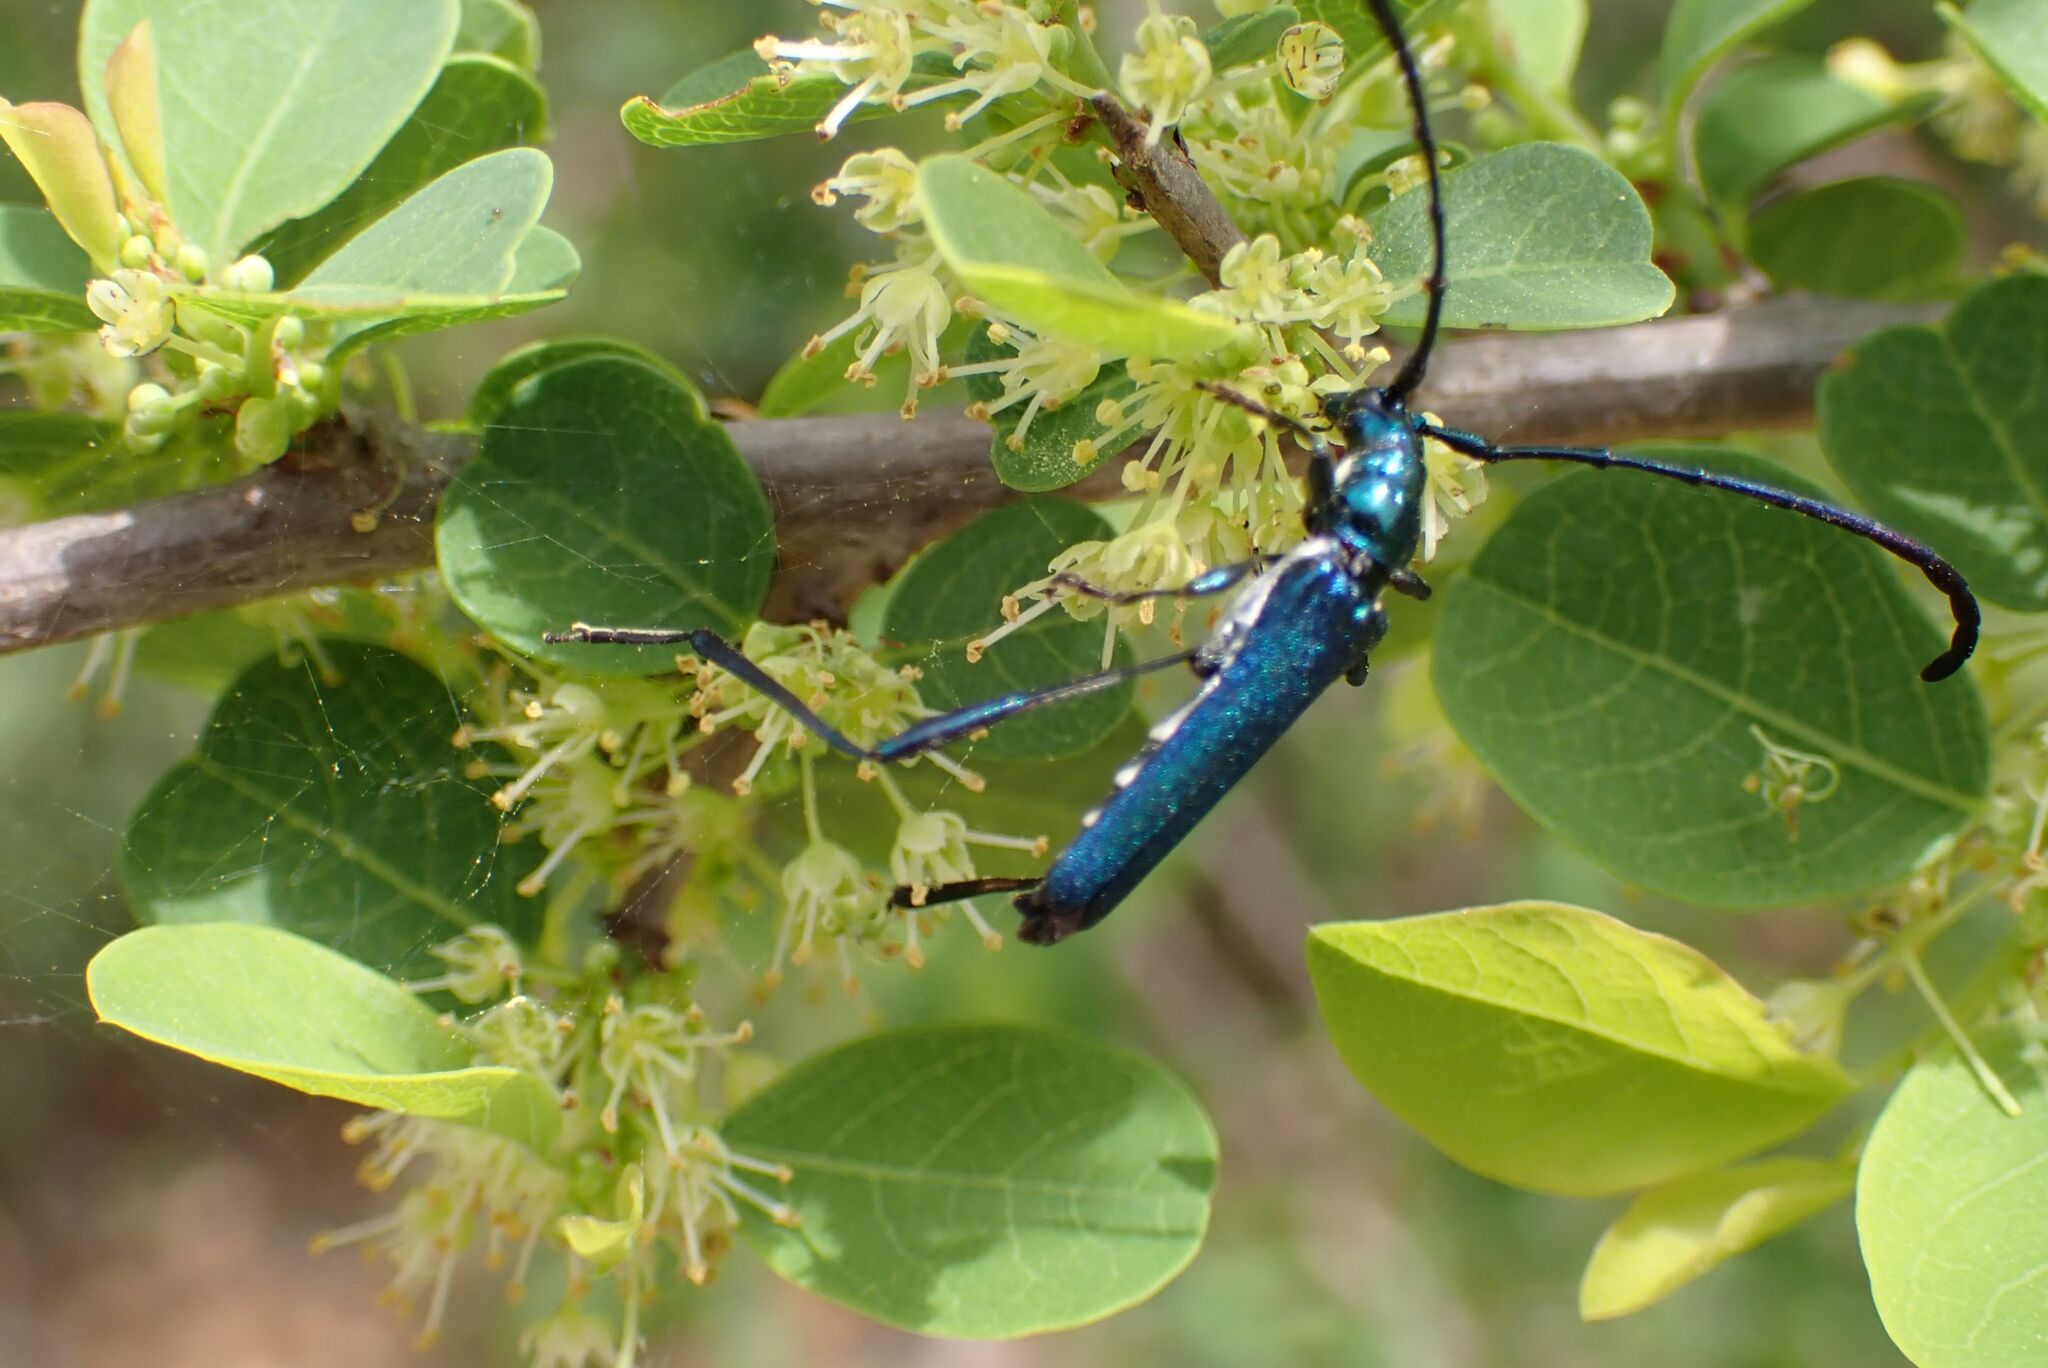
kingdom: Animalia
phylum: Arthropoda
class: Insecta
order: Coleoptera
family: Cerambycidae
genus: Hypocrites
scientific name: Hypocrites obtusipennis
